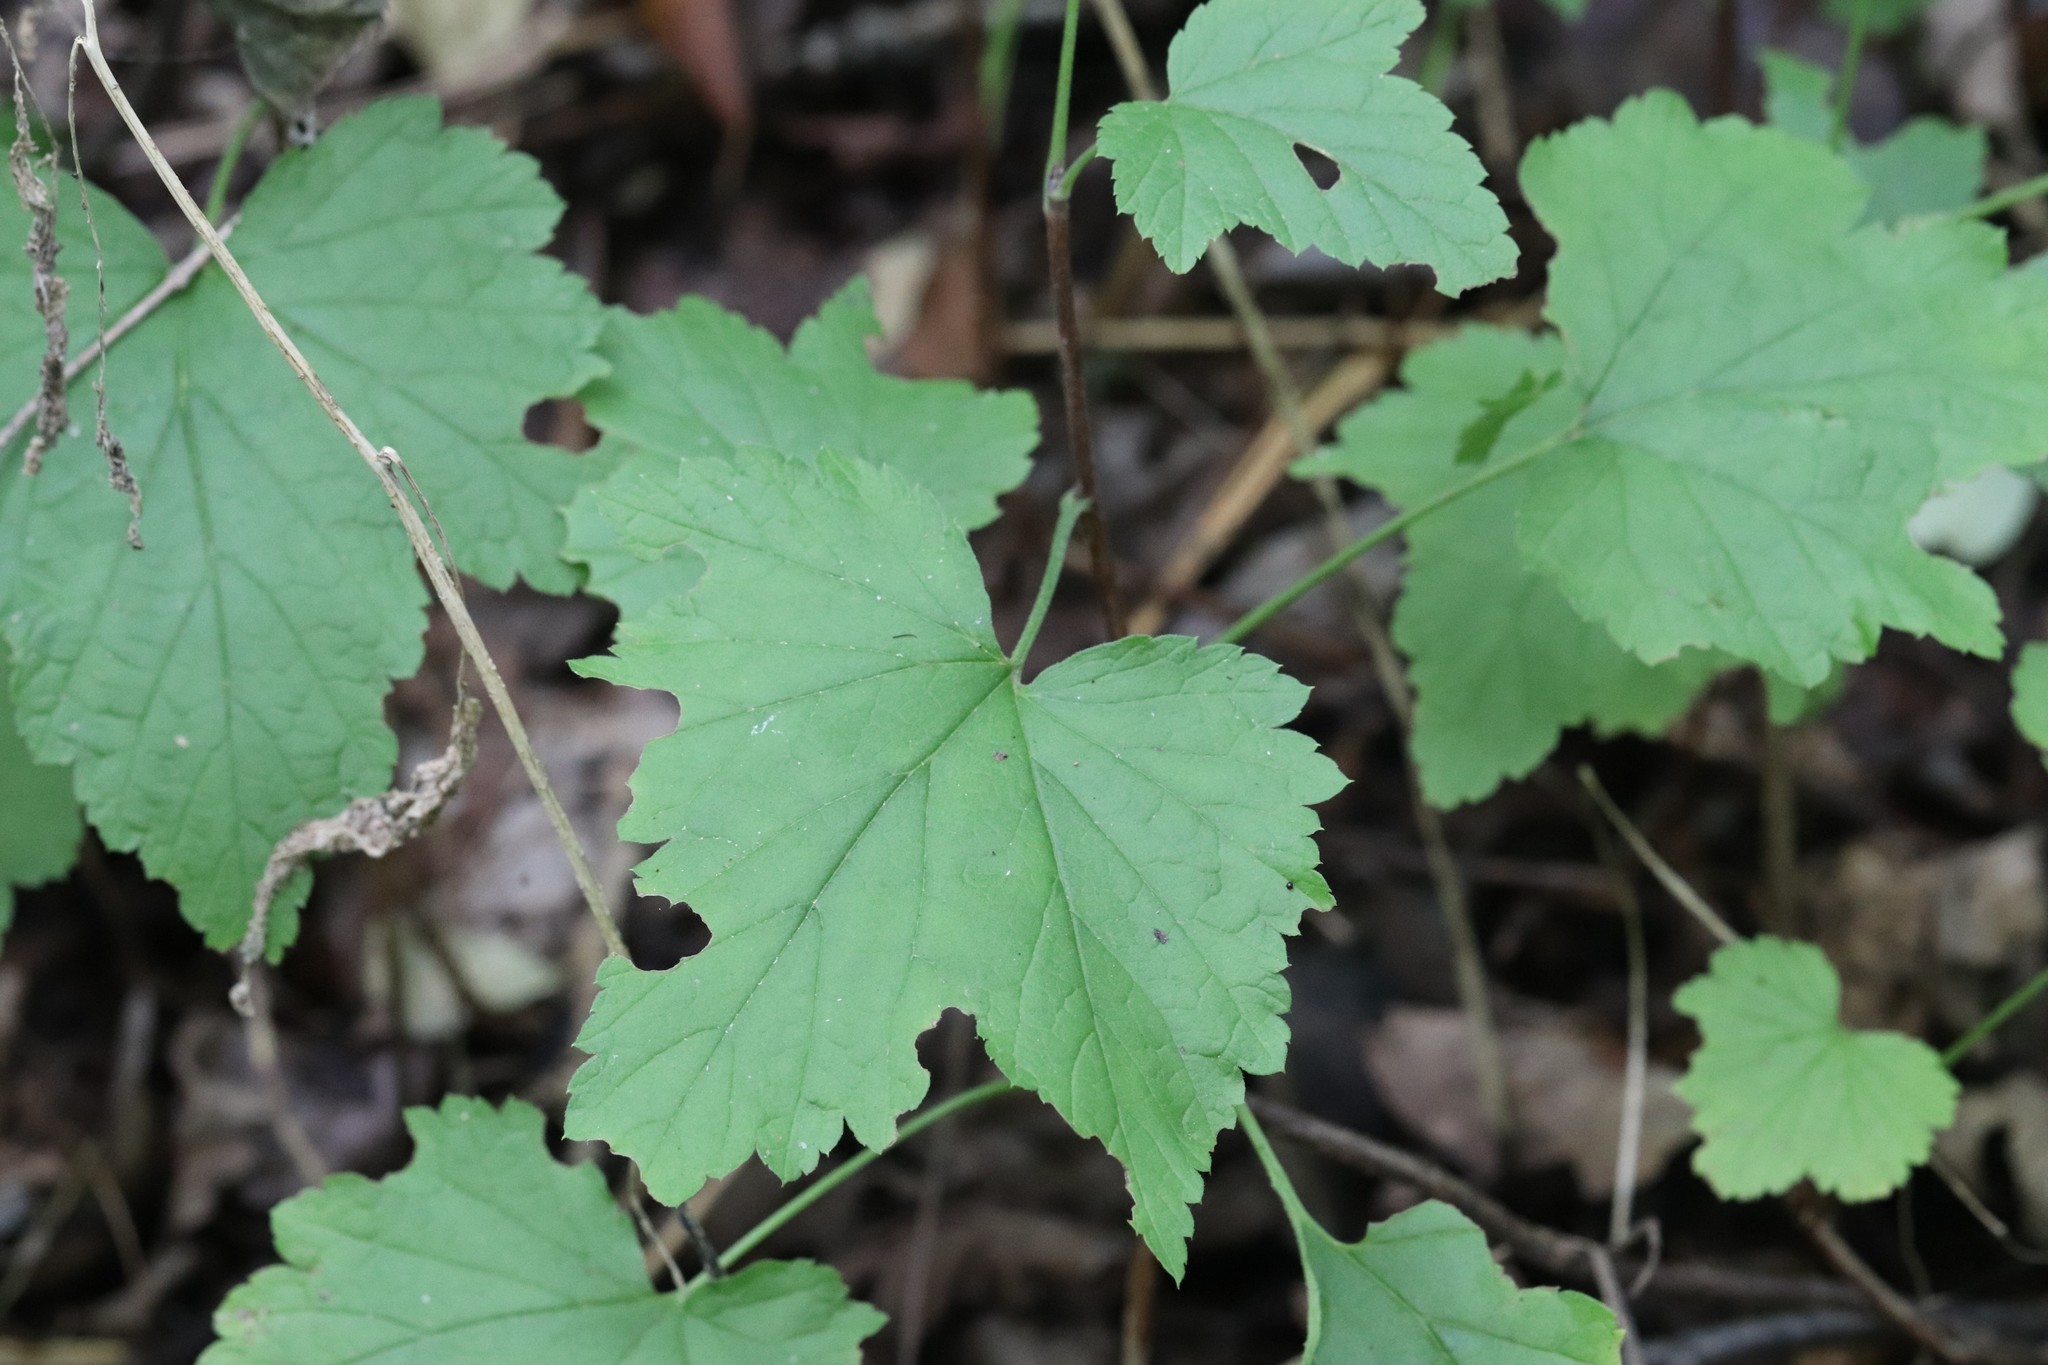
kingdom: Plantae
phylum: Tracheophyta
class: Magnoliopsida
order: Saxifragales
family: Grossulariaceae
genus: Ribes
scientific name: Ribes mandshuricum
